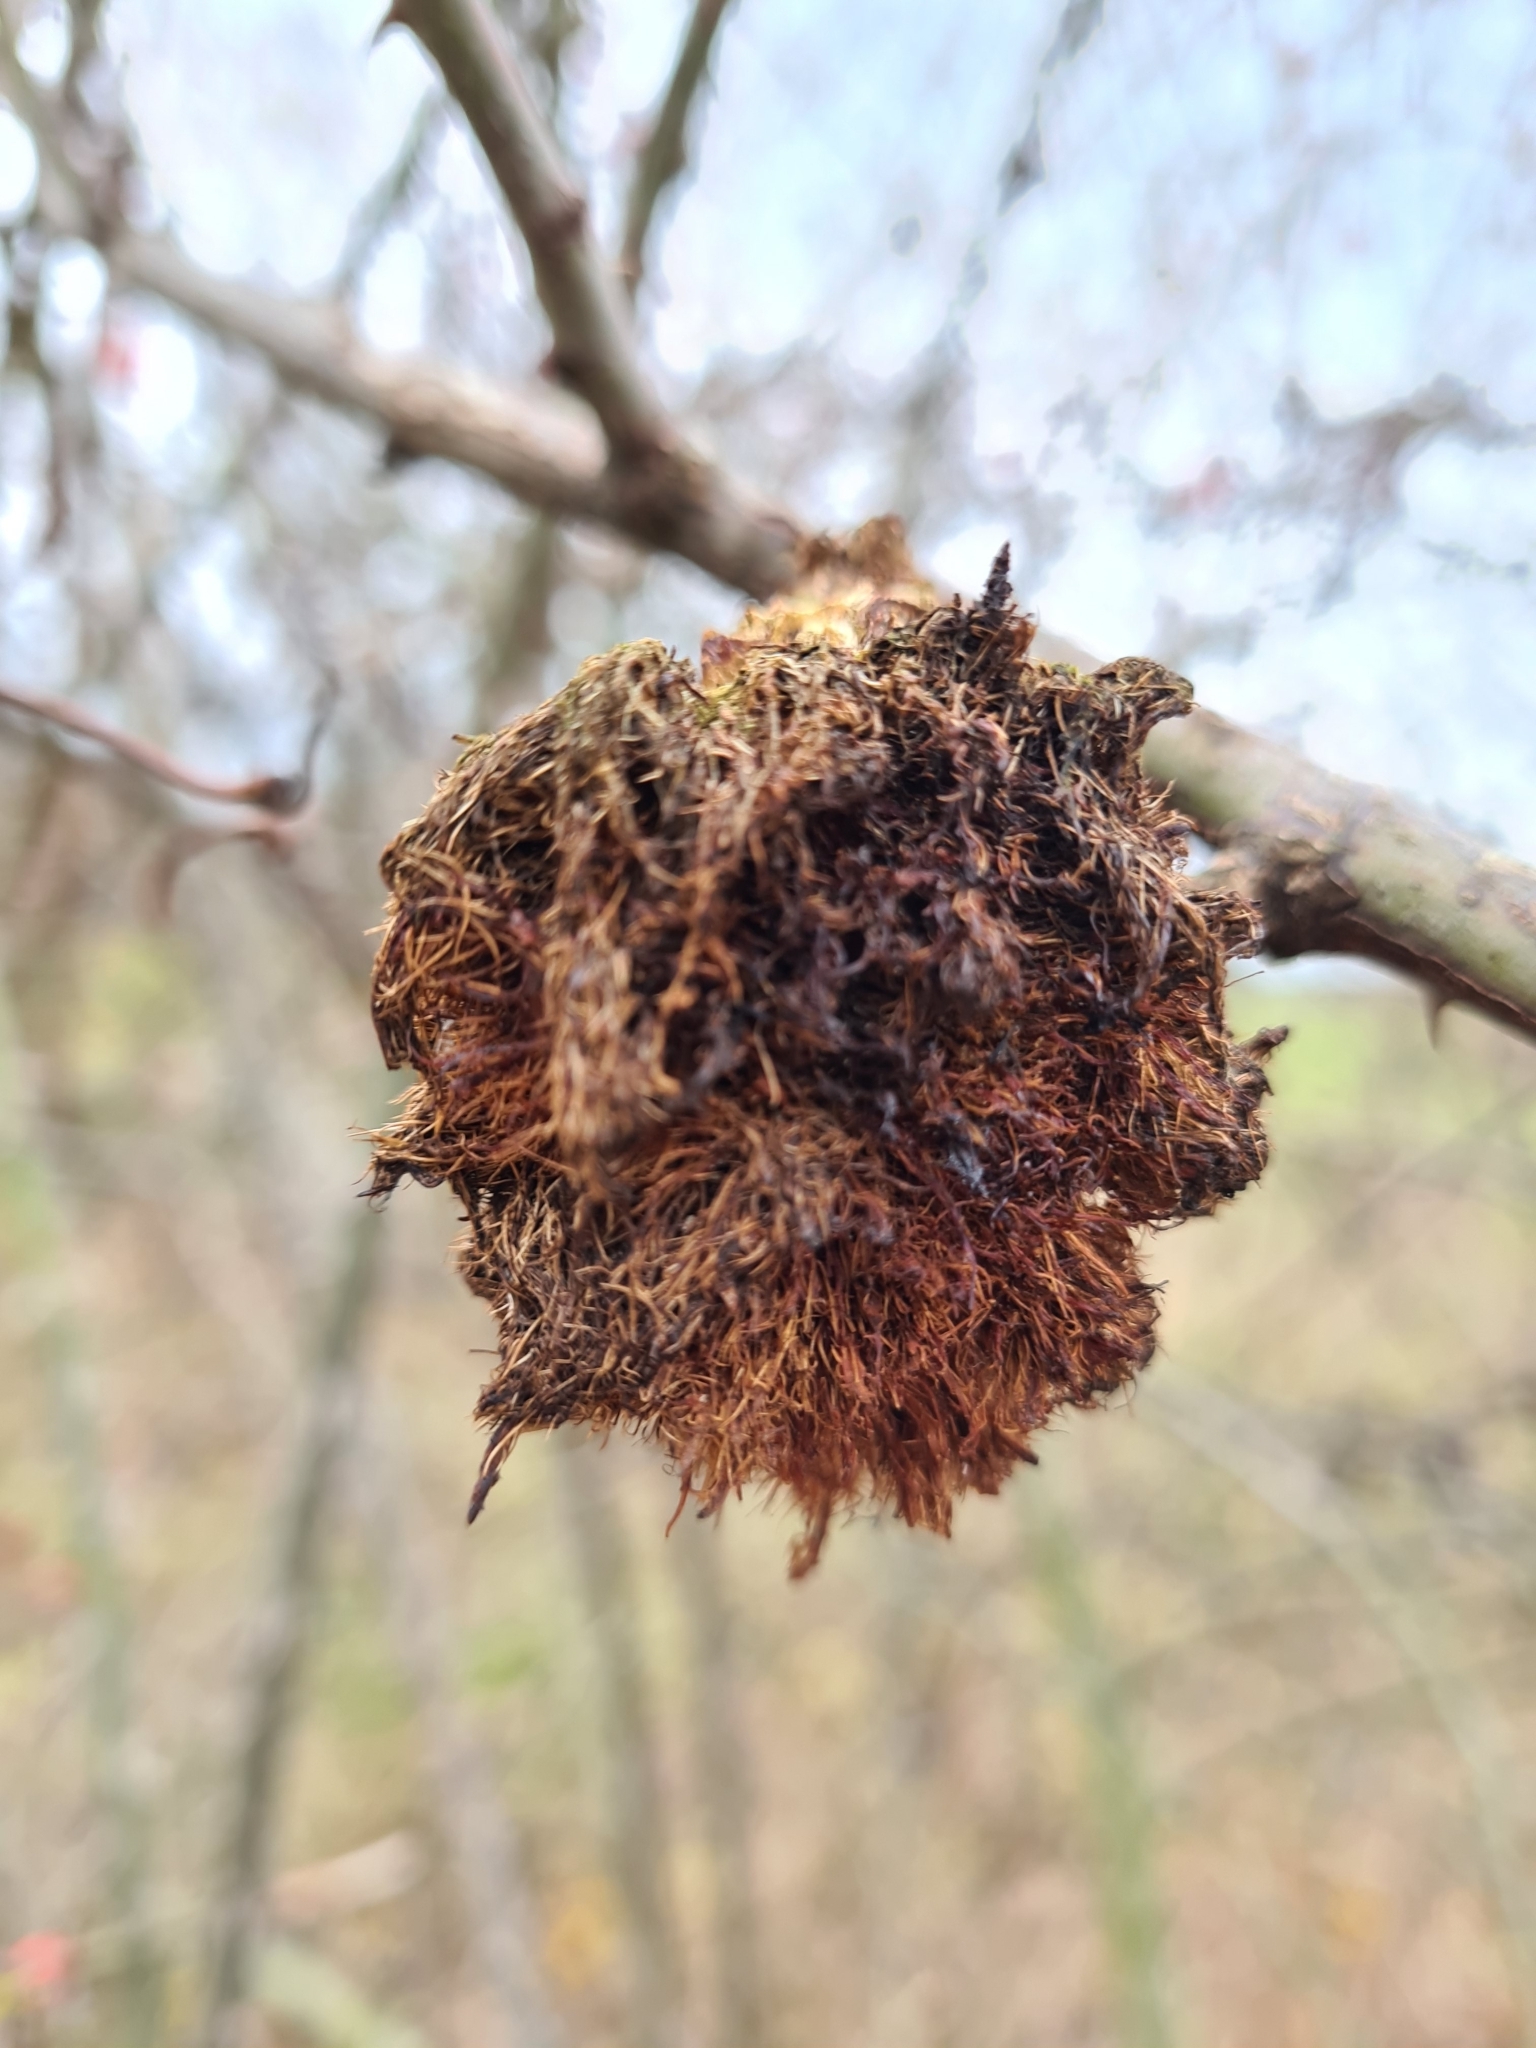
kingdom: Animalia
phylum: Arthropoda
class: Insecta
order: Hymenoptera
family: Cynipidae
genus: Diplolepis
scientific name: Diplolepis rosae
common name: Bedeguar gall
